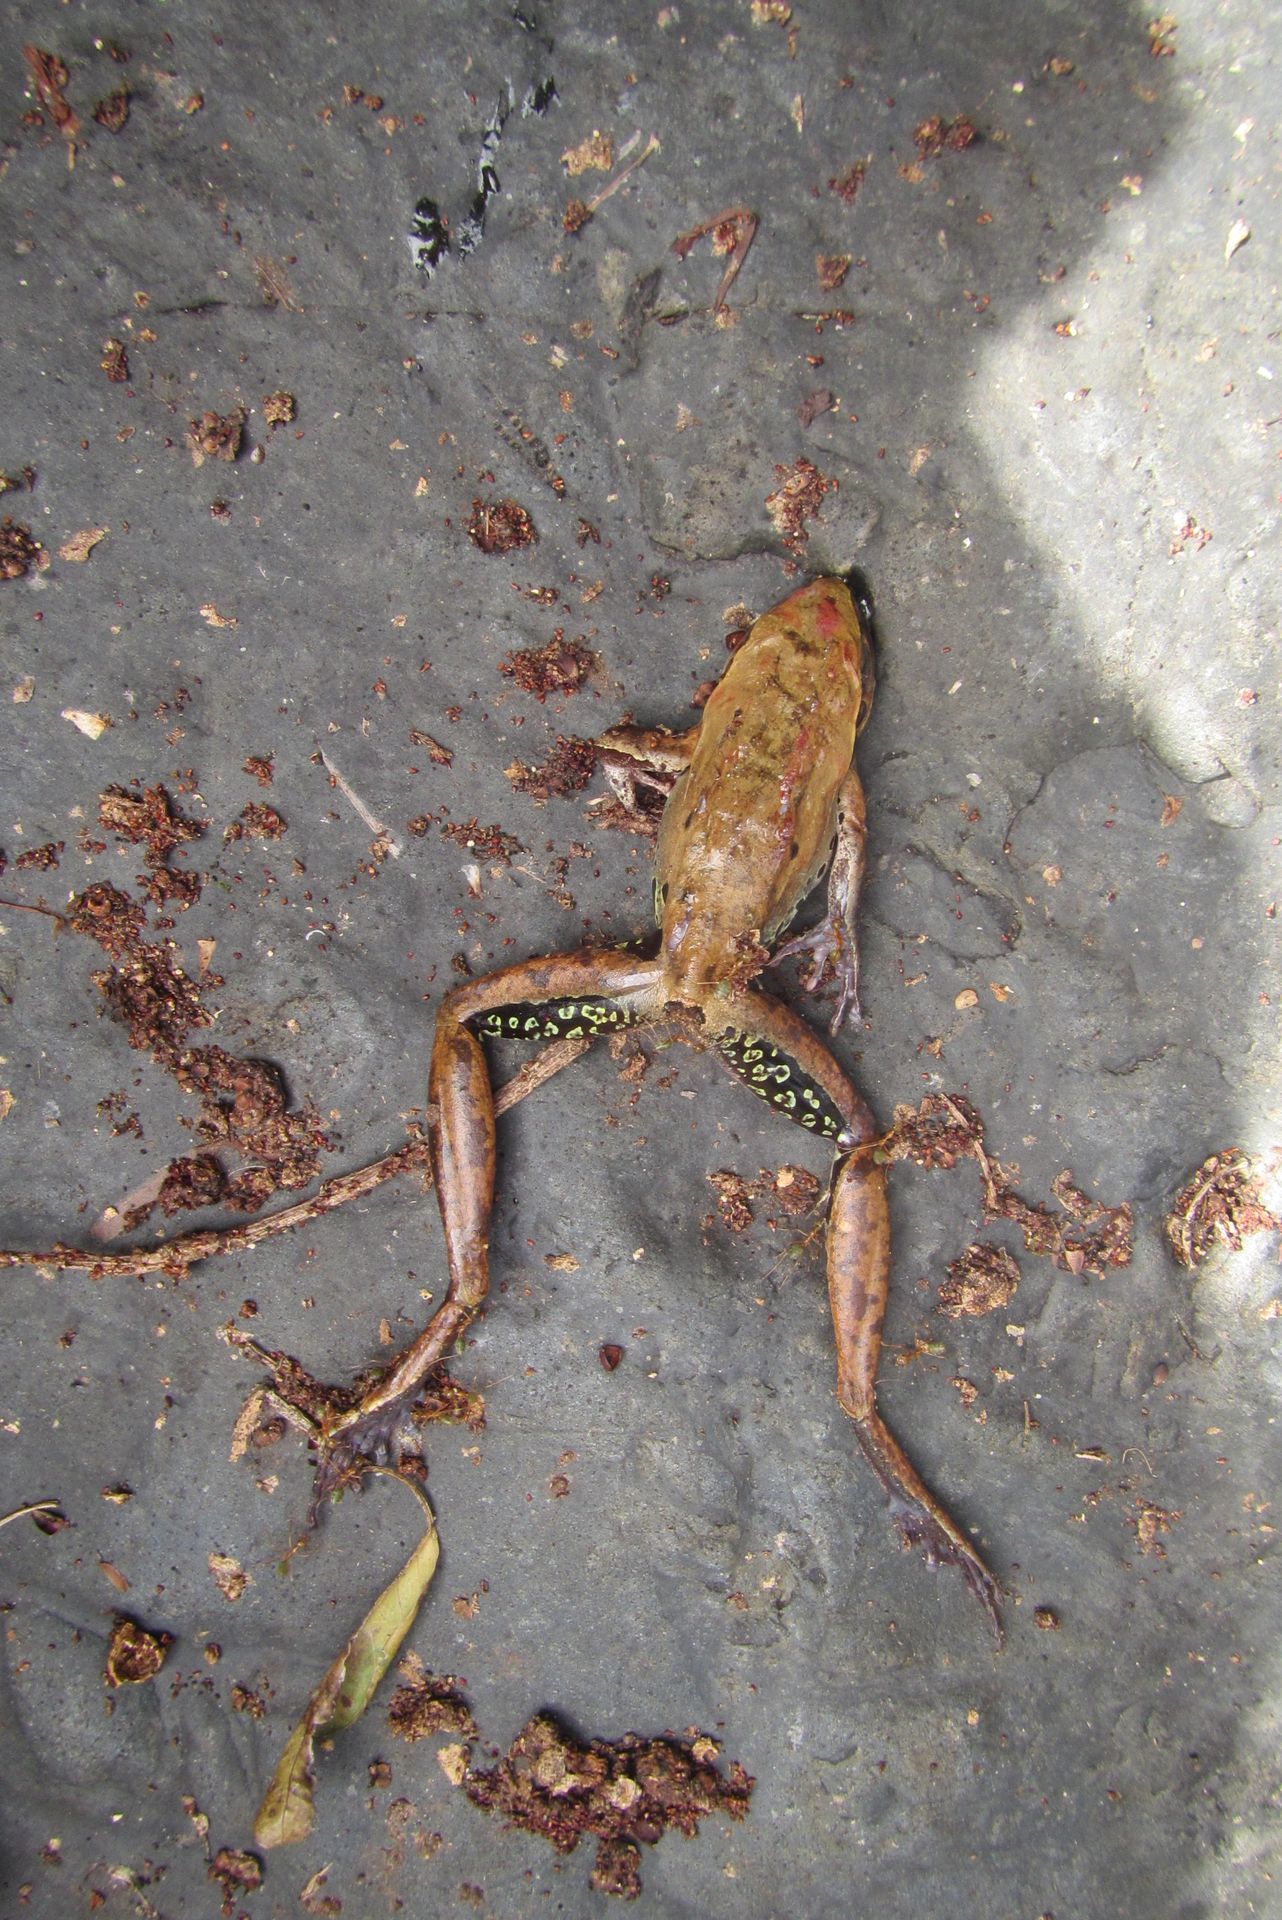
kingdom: Animalia
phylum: Chordata
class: Amphibia
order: Anura
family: Pelodryadidae
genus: Litoria
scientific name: Litoria rothii
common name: Roth’s tree frog
